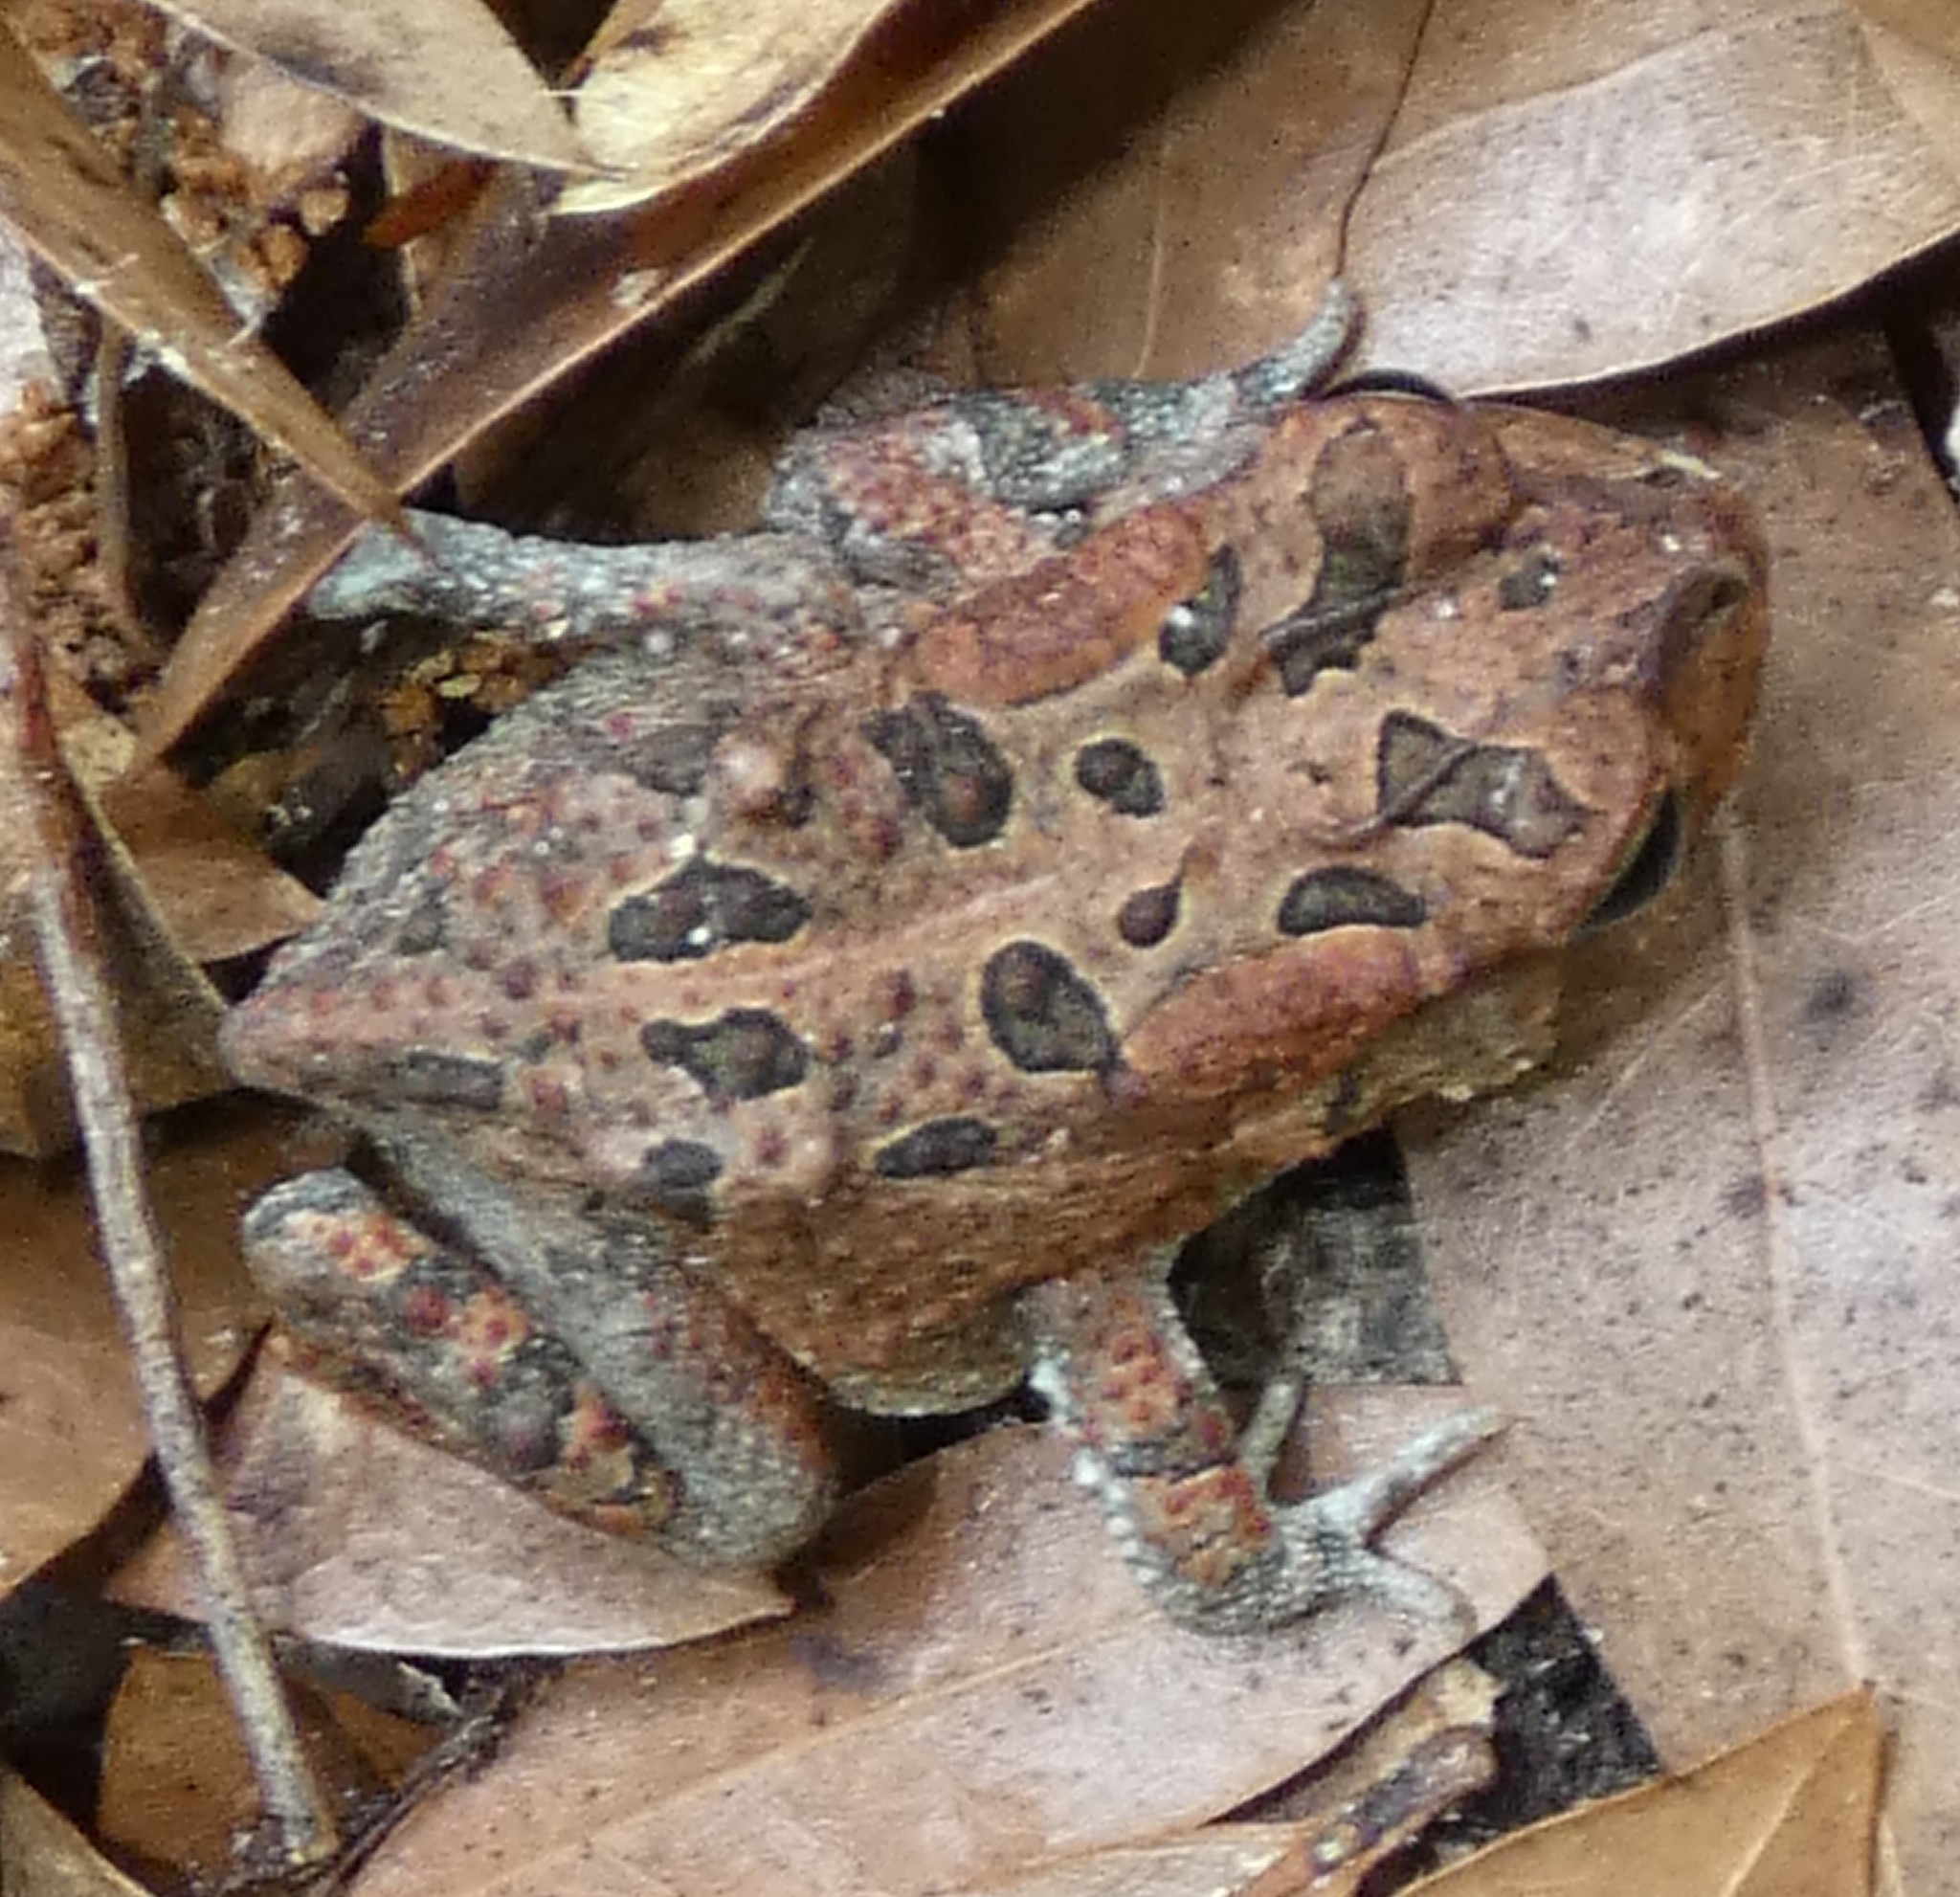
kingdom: Animalia
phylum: Chordata
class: Amphibia
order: Anura
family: Bufonidae
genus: Anaxyrus
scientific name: Anaxyrus terrestris
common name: Southern toad
